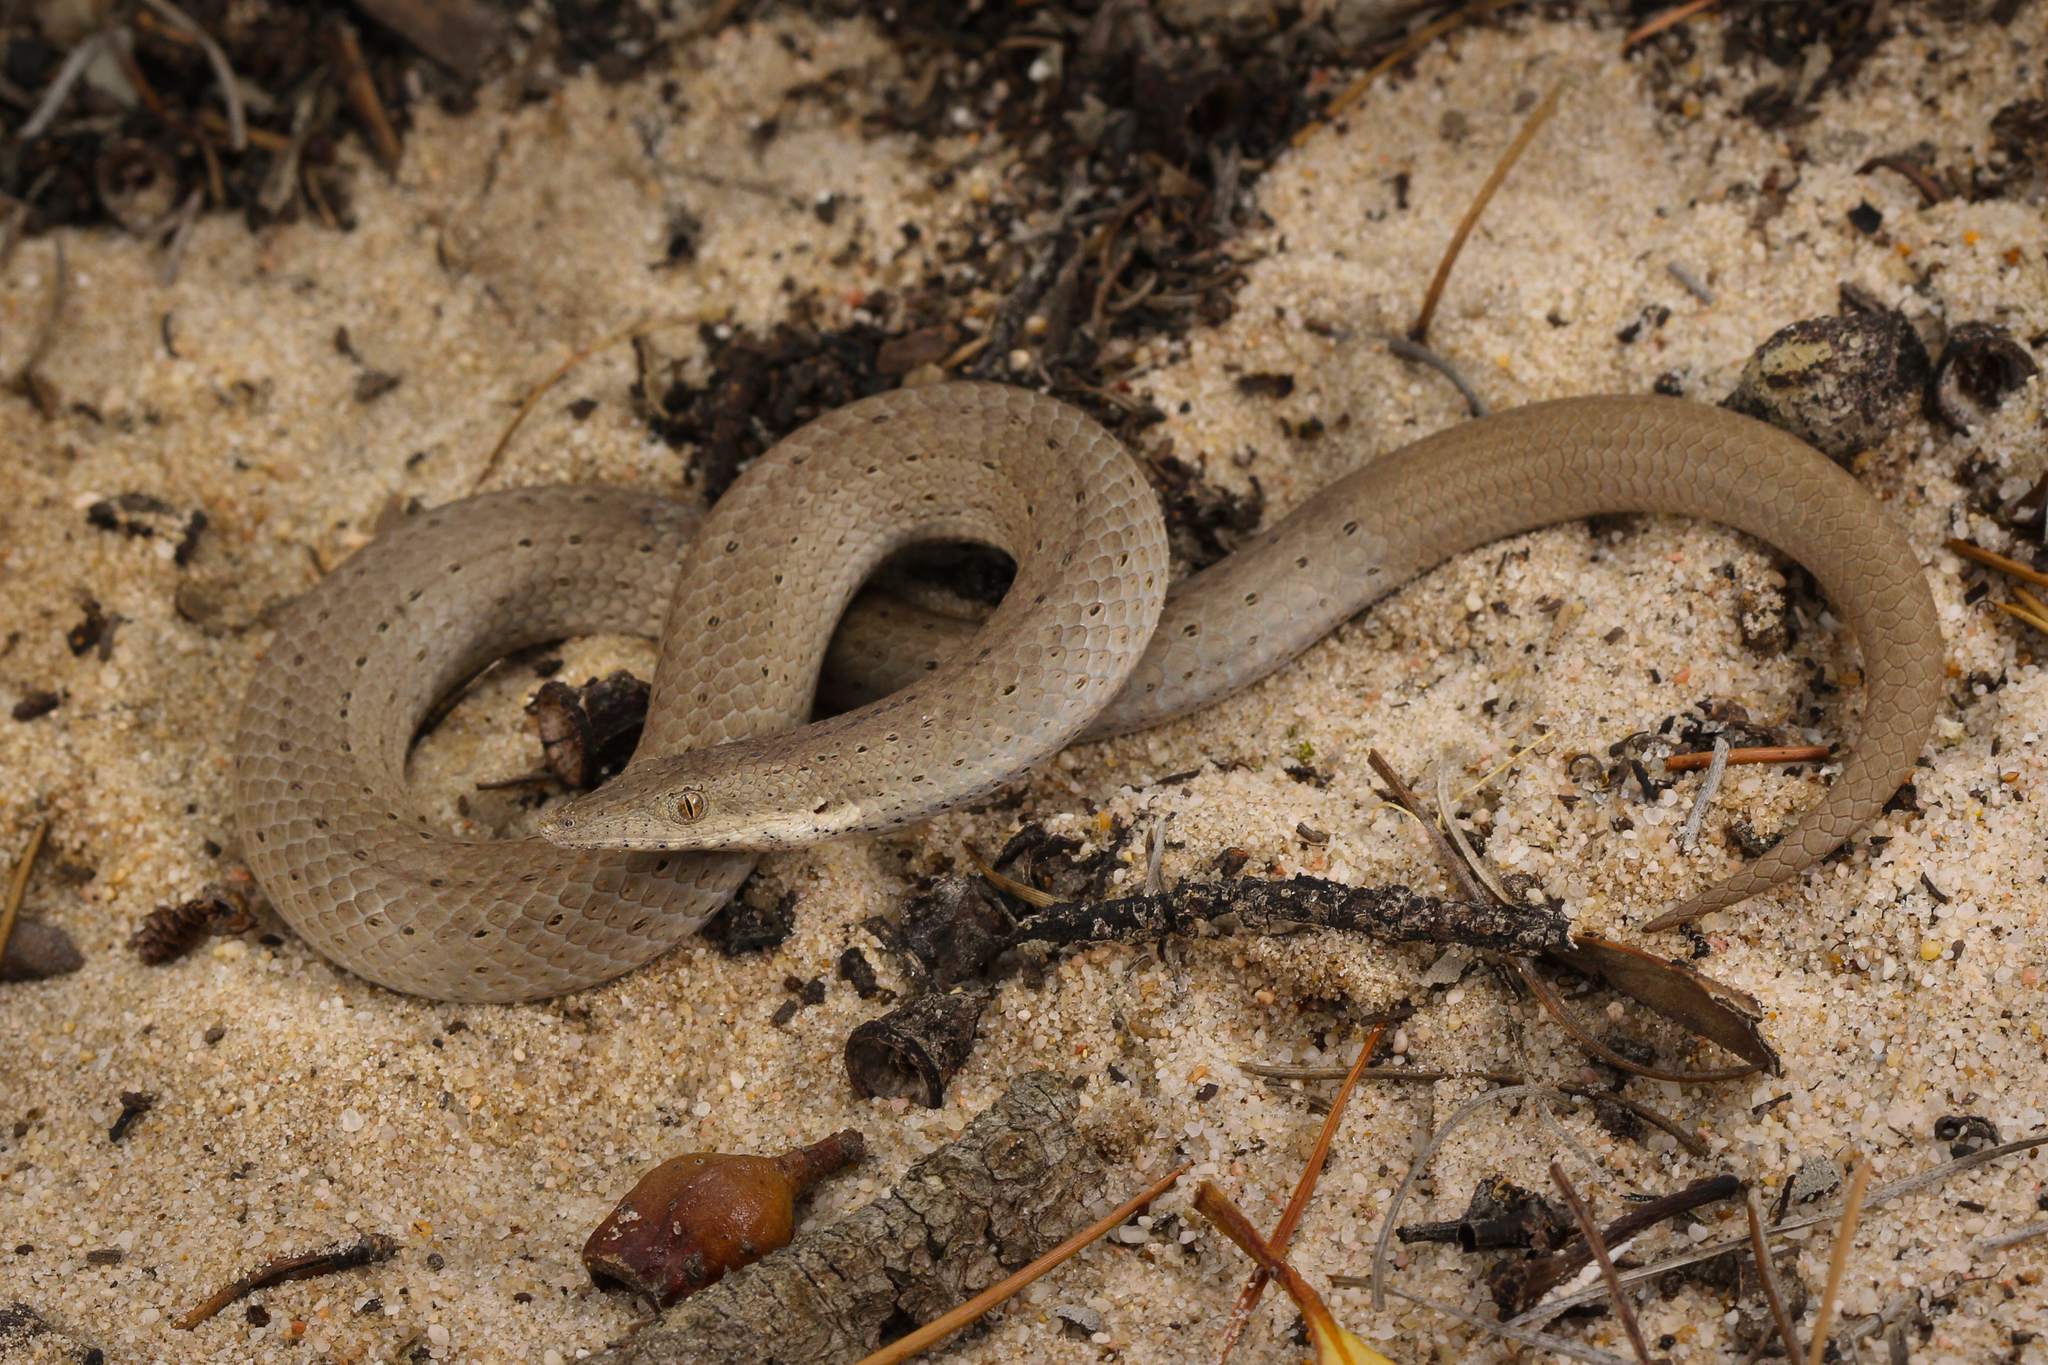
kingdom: Animalia
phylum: Chordata
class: Squamata
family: Pygopodidae
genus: Lialis
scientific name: Lialis burtonis
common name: Burton's legless lizard
